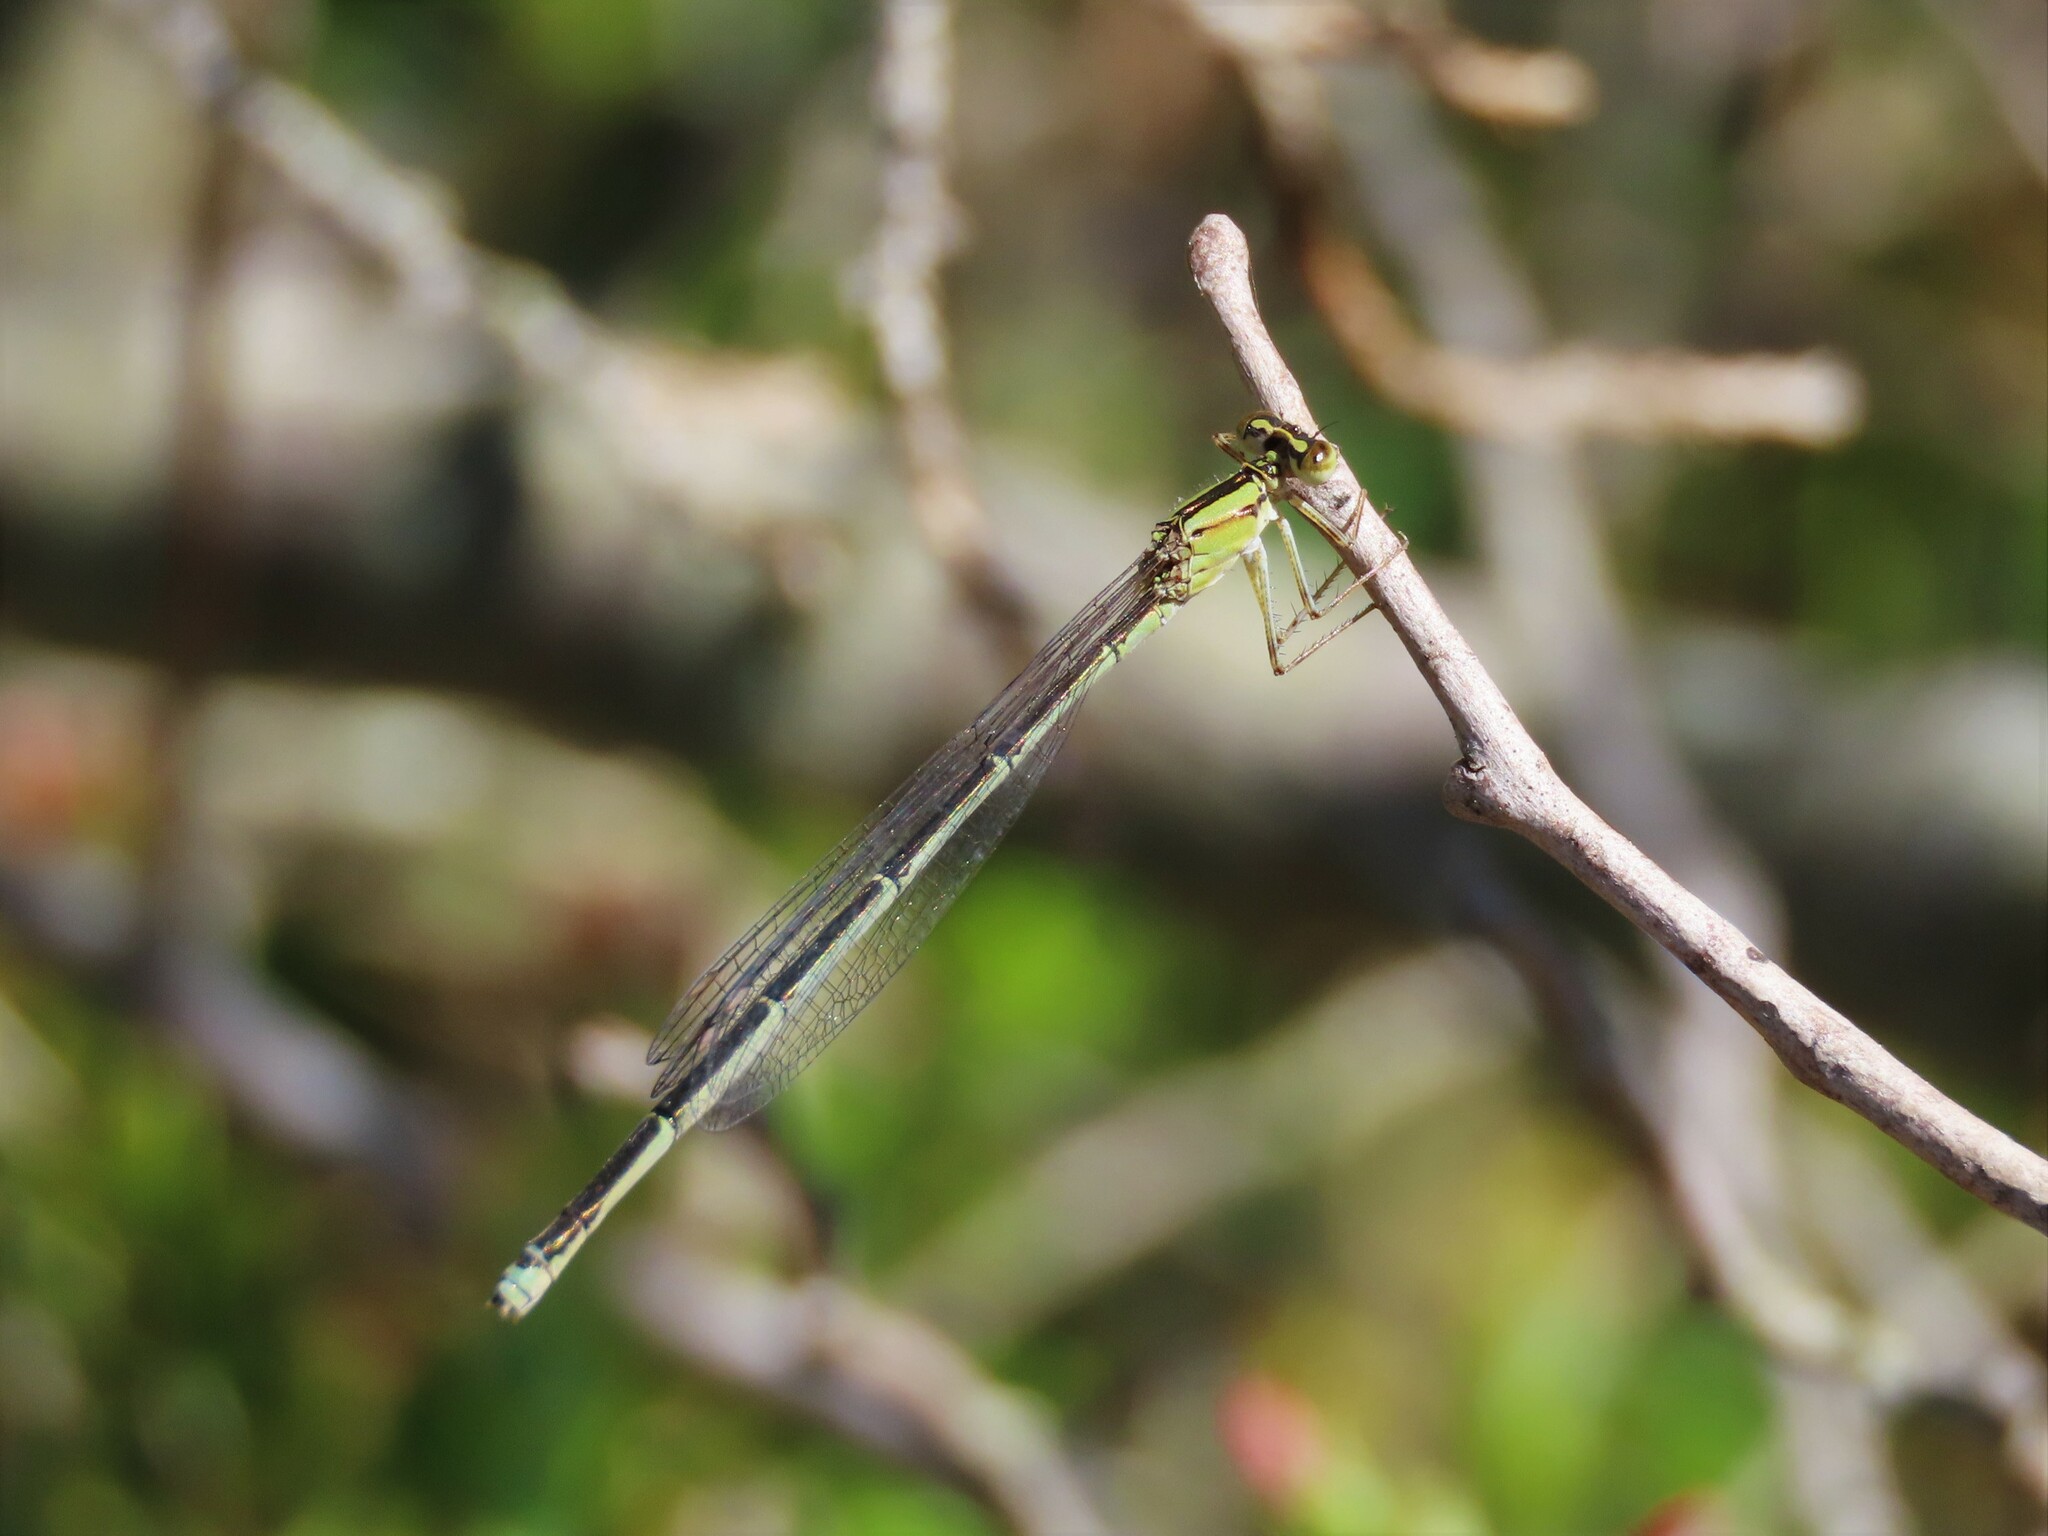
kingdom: Animalia
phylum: Arthropoda
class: Insecta
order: Odonata
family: Coenagrionidae
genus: Enallagma
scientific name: Enallagma vesperum
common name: Vesper bluet
